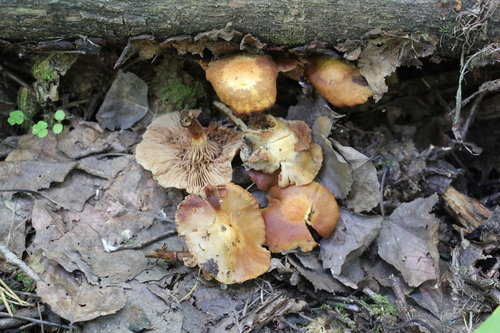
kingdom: Fungi
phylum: Basidiomycota
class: Agaricomycetes
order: Agaricales
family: Strophariaceae
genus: Kuehneromyces
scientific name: Kuehneromyces mutabilis
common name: Sheathed woodtuft
